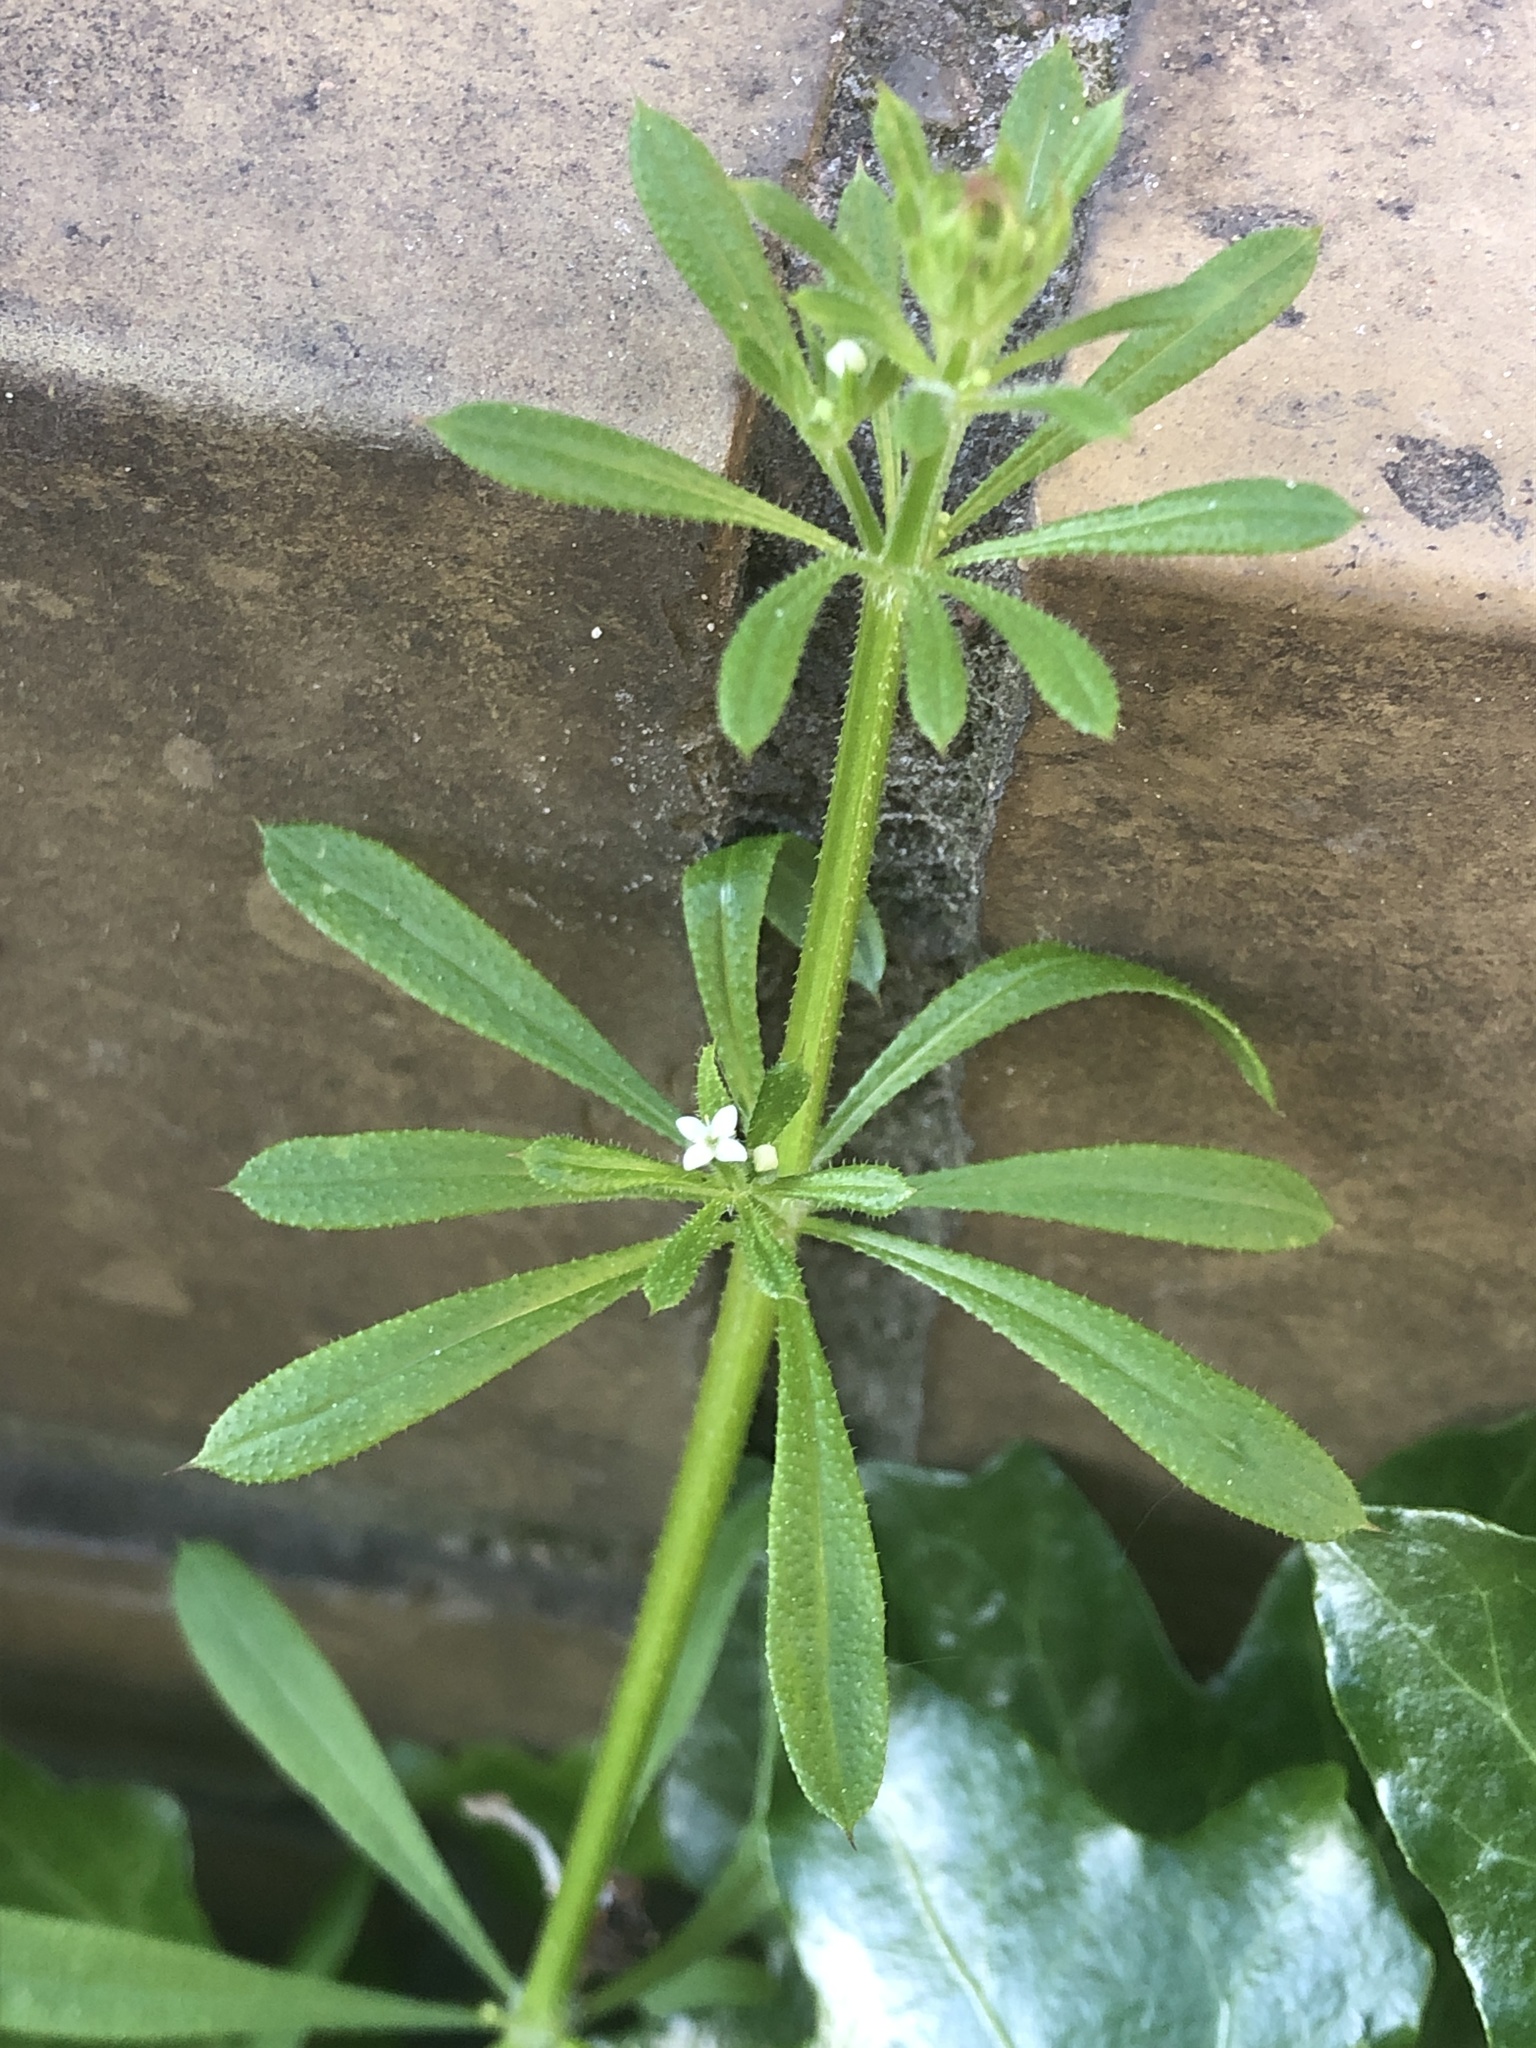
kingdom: Plantae
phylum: Tracheophyta
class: Magnoliopsida
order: Gentianales
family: Rubiaceae
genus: Galium
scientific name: Galium aparine
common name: Cleavers
